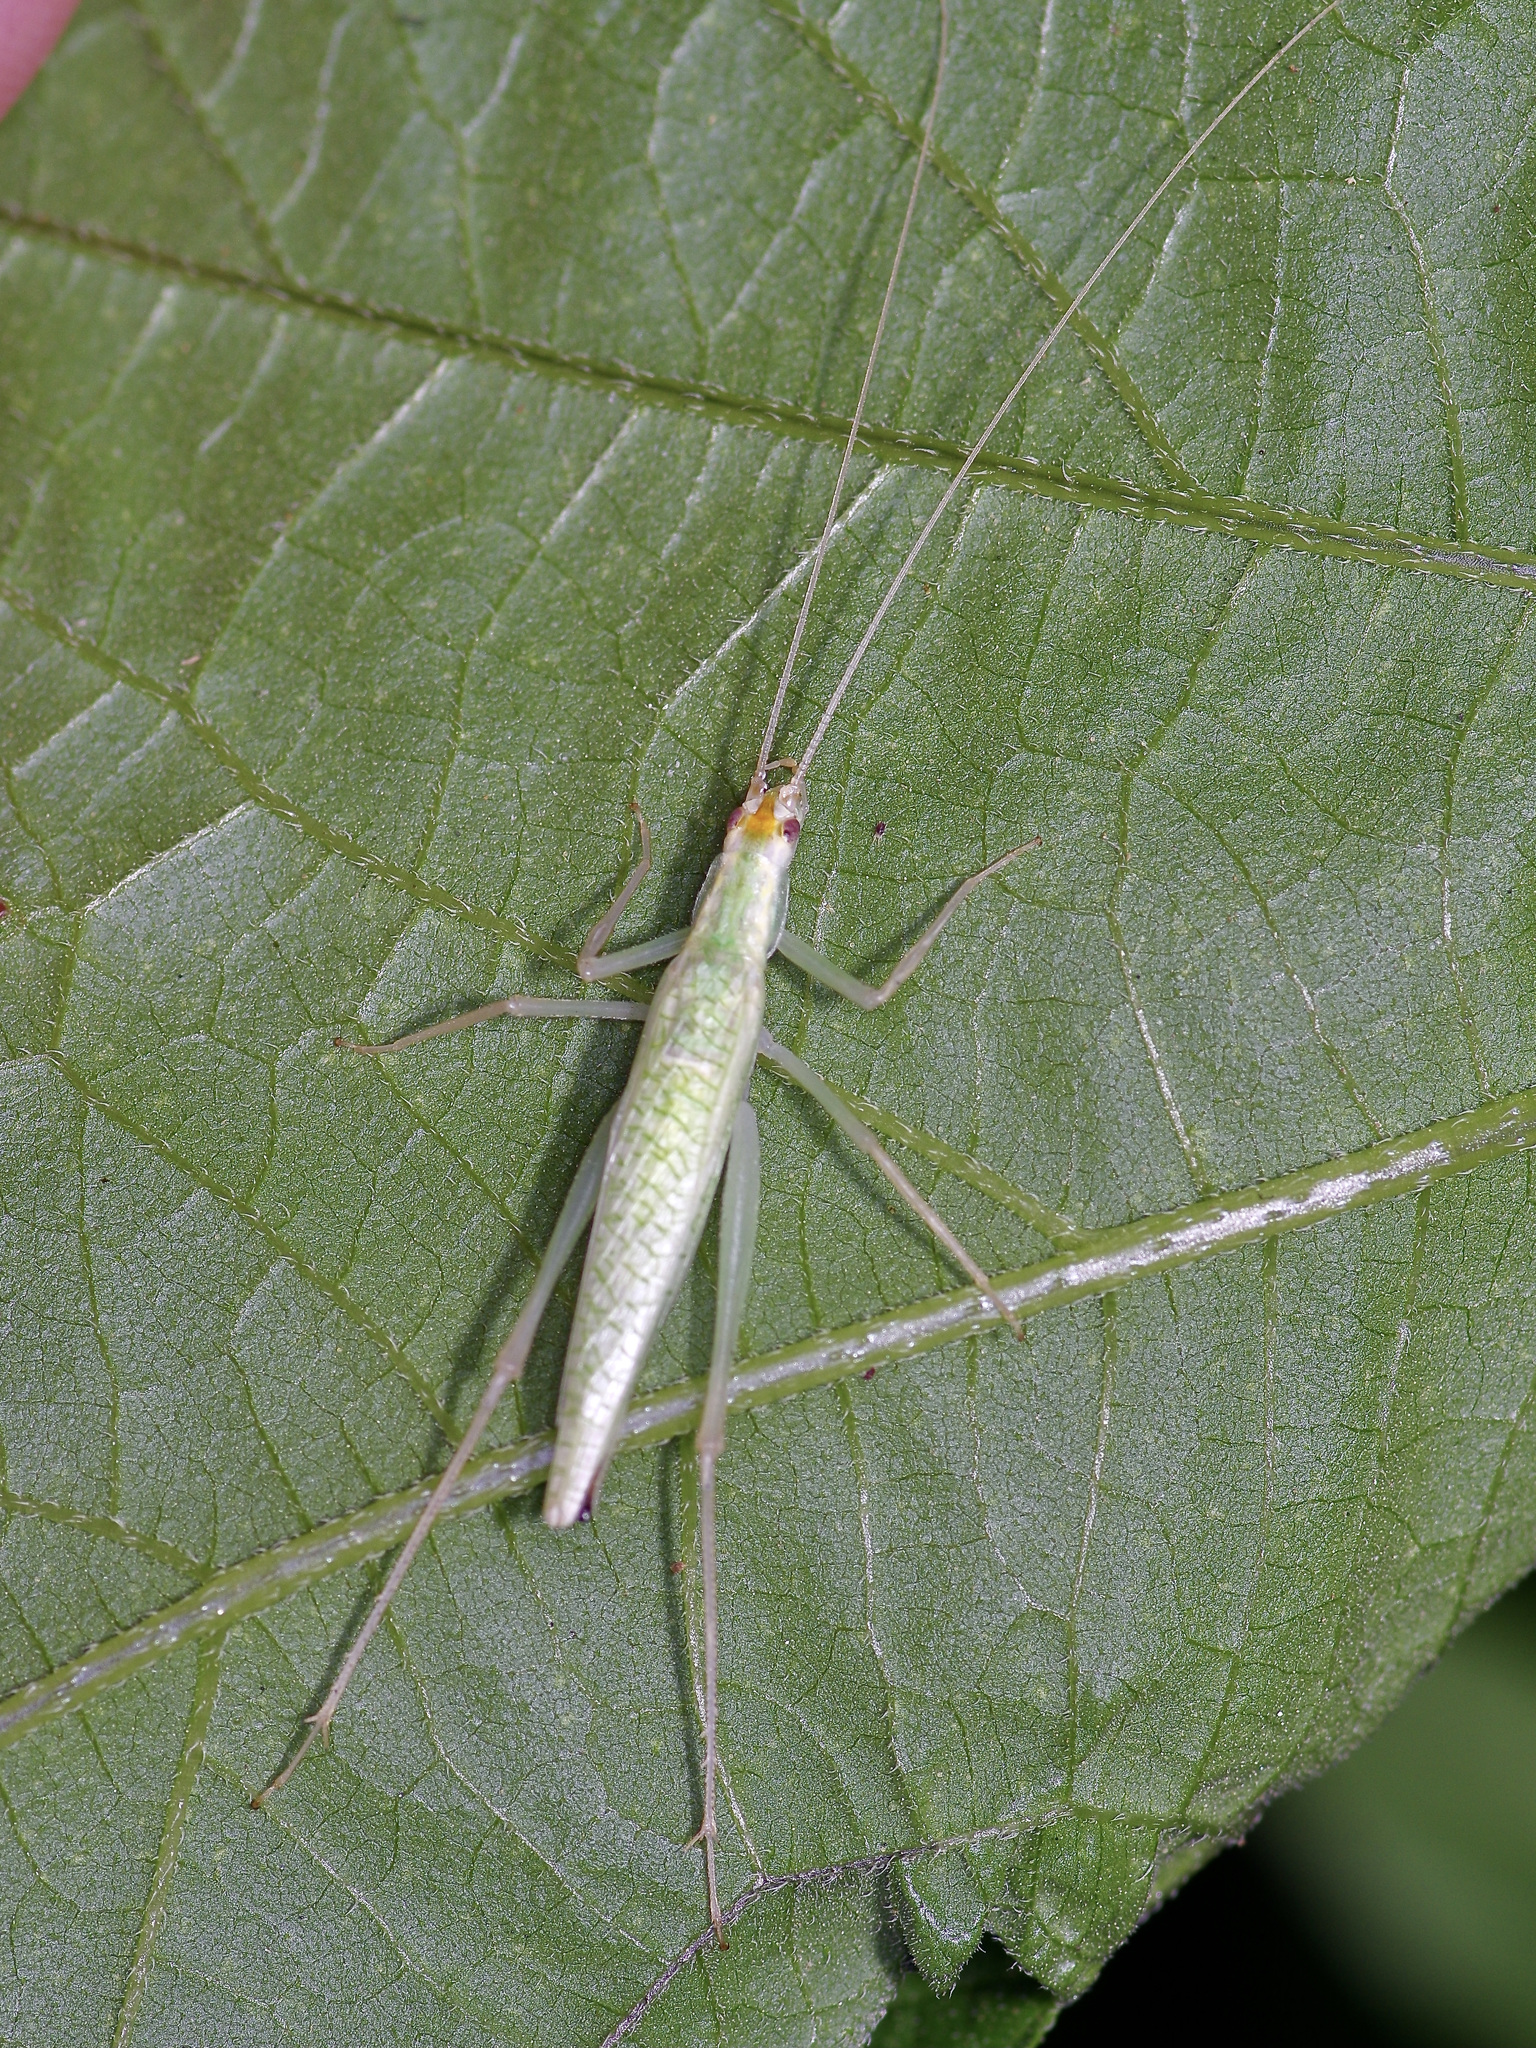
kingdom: Animalia
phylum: Arthropoda
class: Insecta
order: Orthoptera
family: Gryllidae
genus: Oecanthus
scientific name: Oecanthus fultoni
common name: Snowy tree cricket
